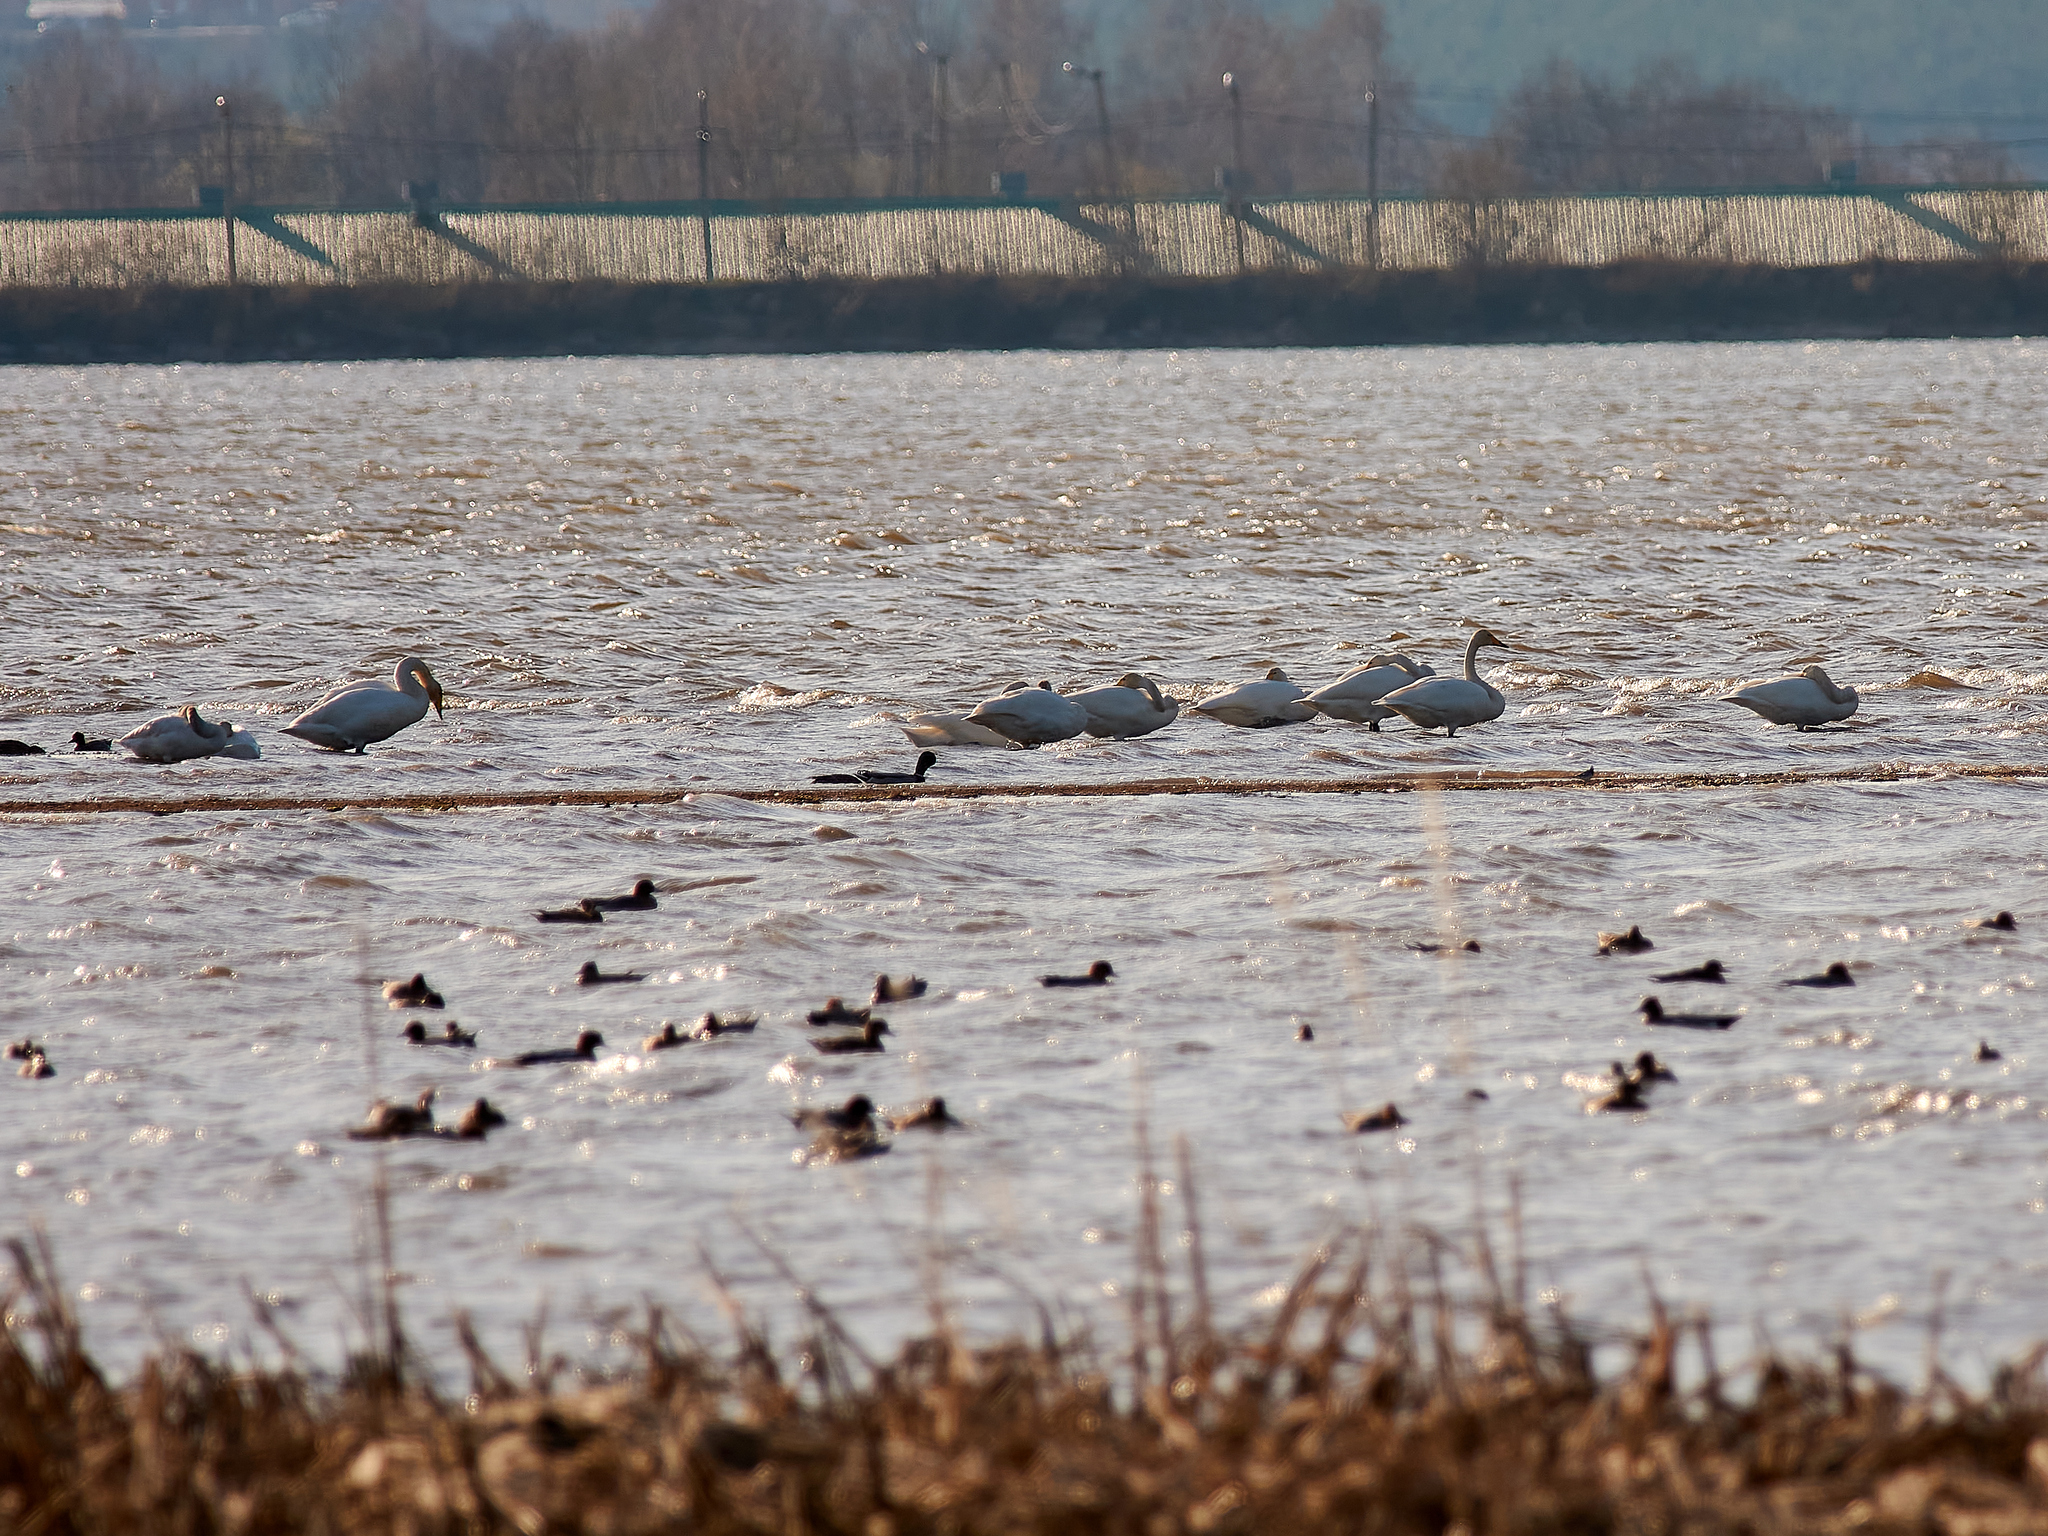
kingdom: Animalia
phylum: Chordata
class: Aves
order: Anseriformes
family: Anatidae
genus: Cygnus
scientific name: Cygnus cygnus
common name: Whooper swan
